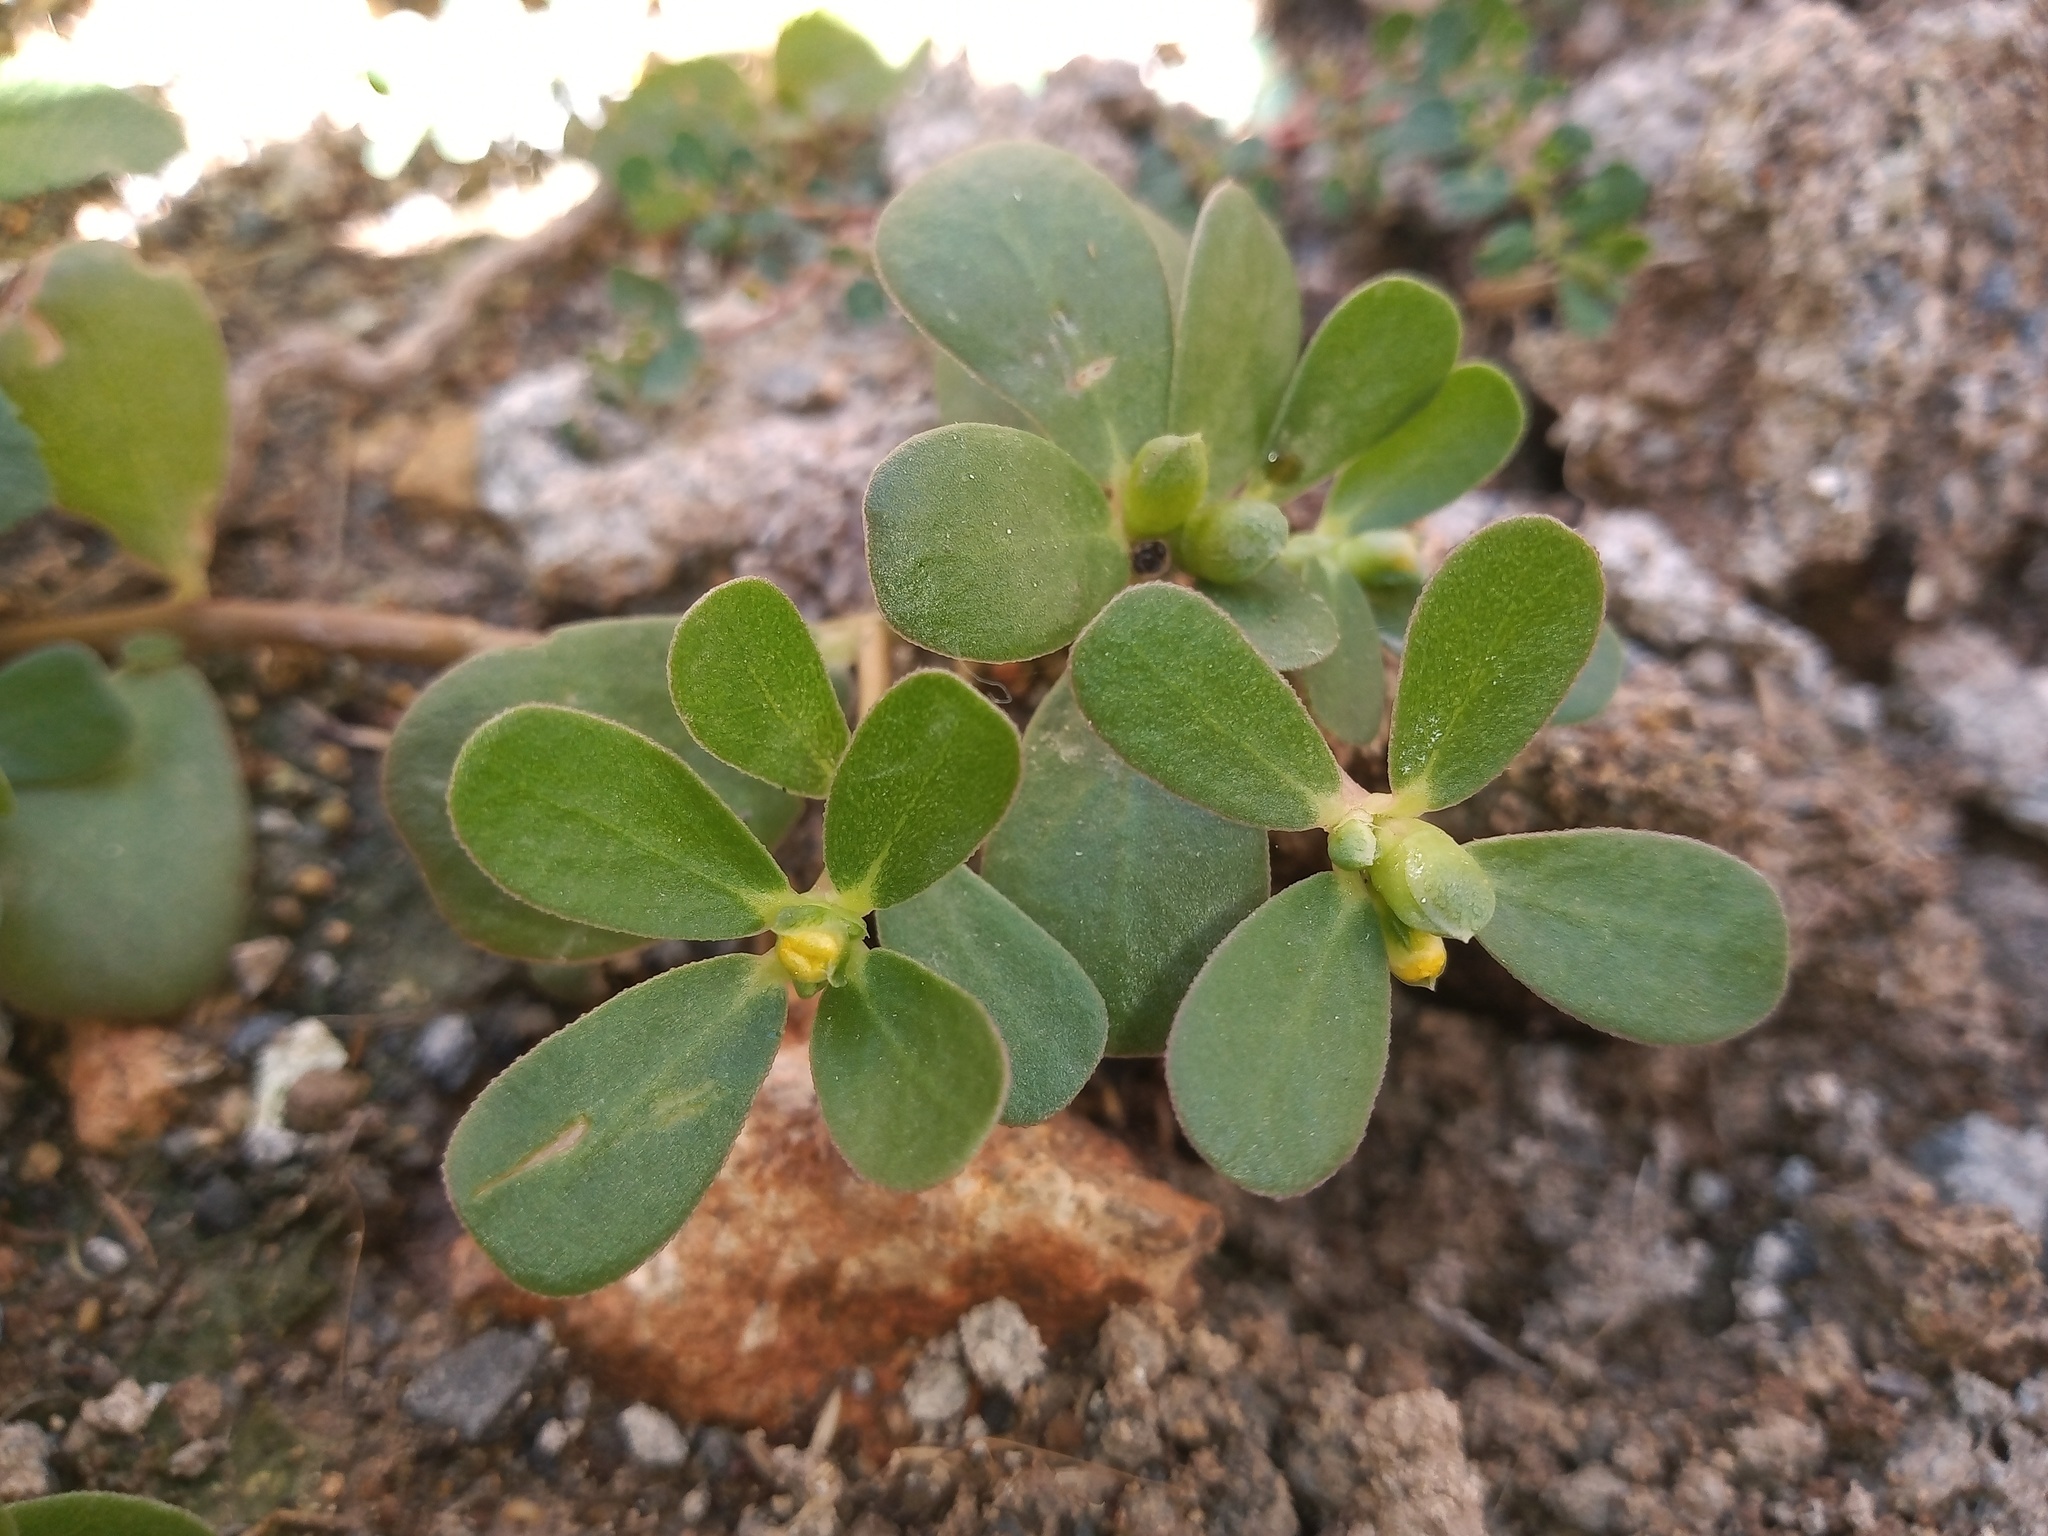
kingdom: Plantae
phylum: Tracheophyta
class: Magnoliopsida
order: Caryophyllales
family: Portulacaceae
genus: Portulaca
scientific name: Portulaca oleracea
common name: Common purslane
